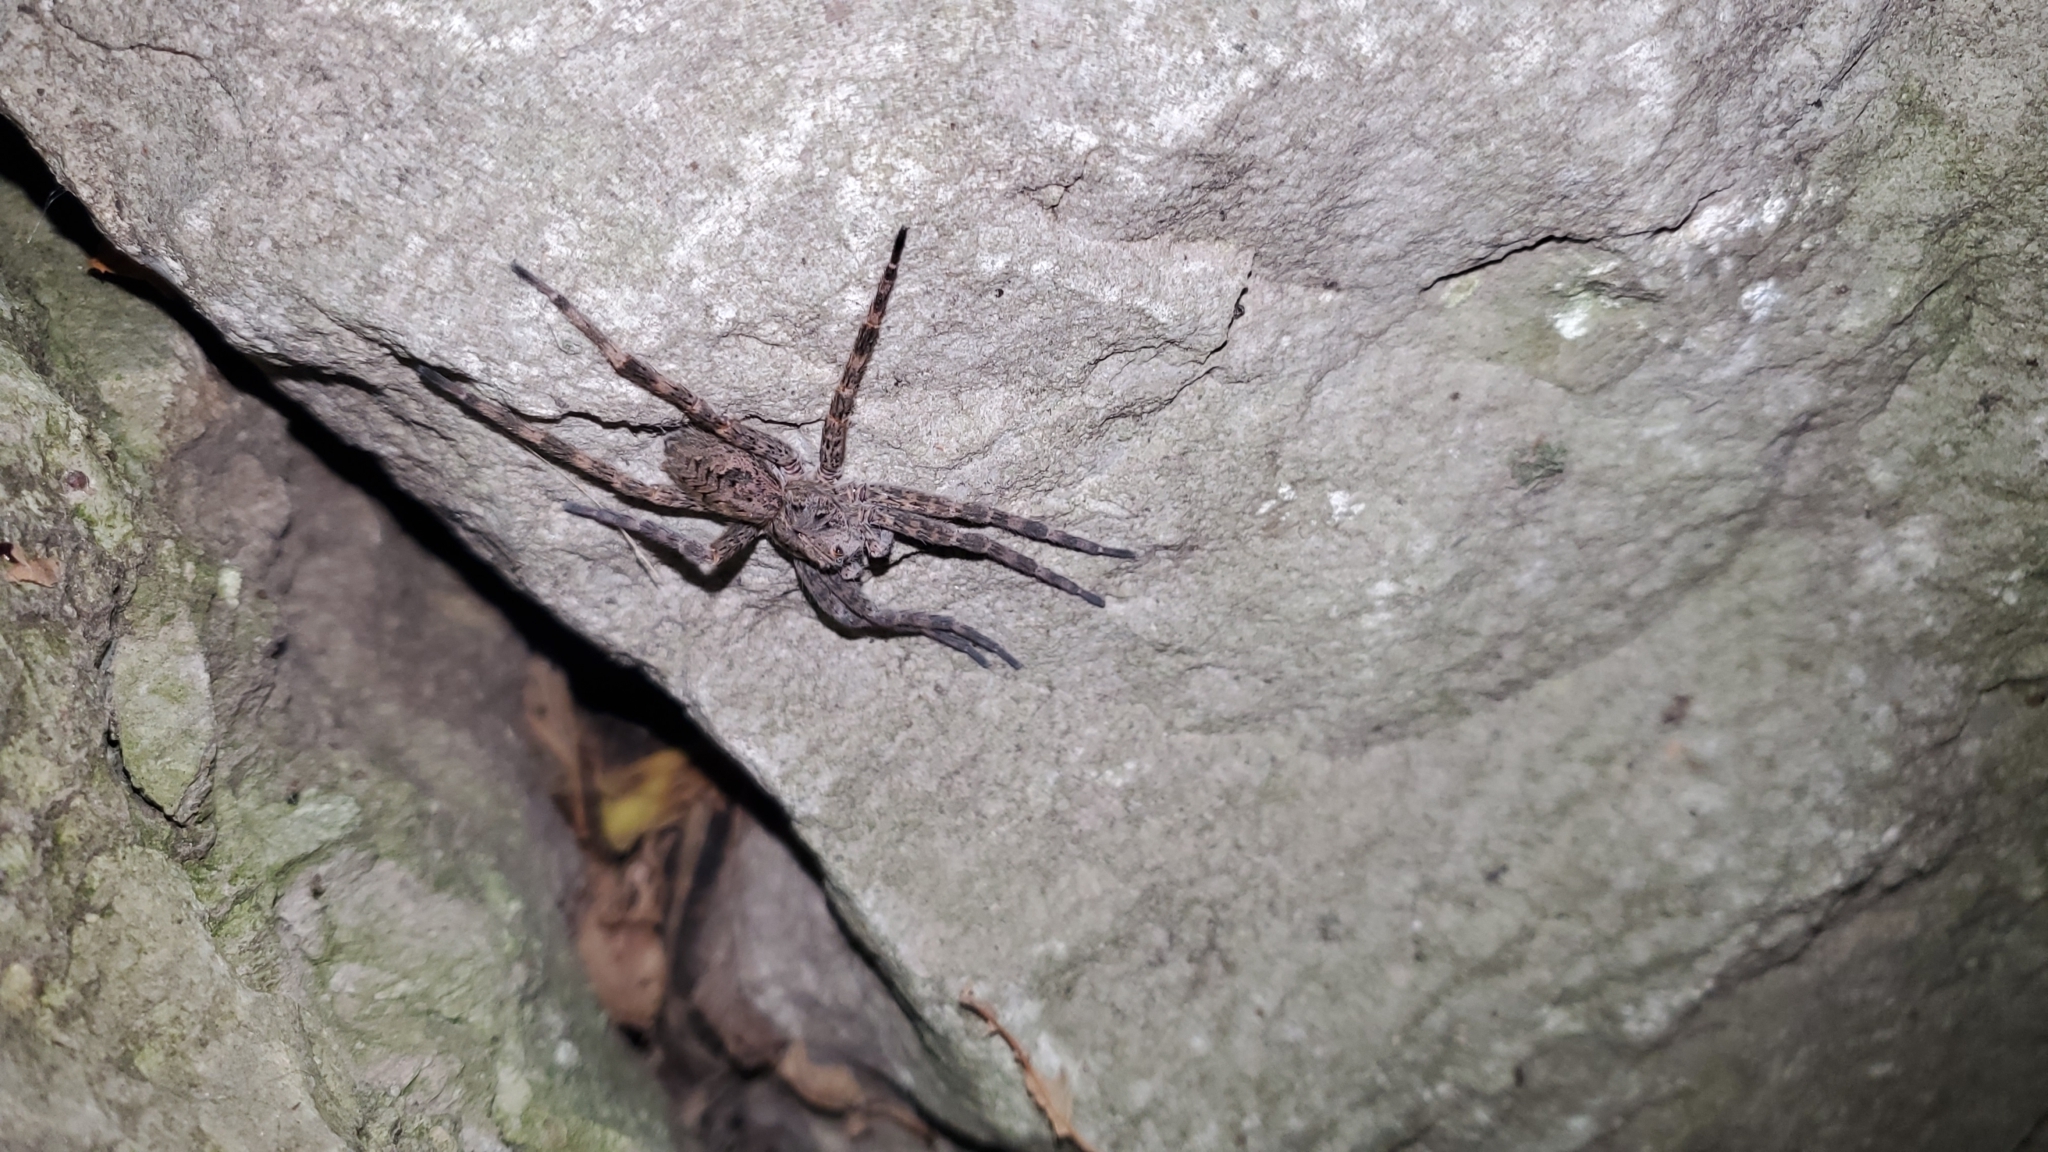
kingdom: Animalia
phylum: Arthropoda
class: Arachnida
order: Araneae
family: Pisauridae
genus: Dolomedes
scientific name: Dolomedes tenebrosus
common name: Dark fishing spider
